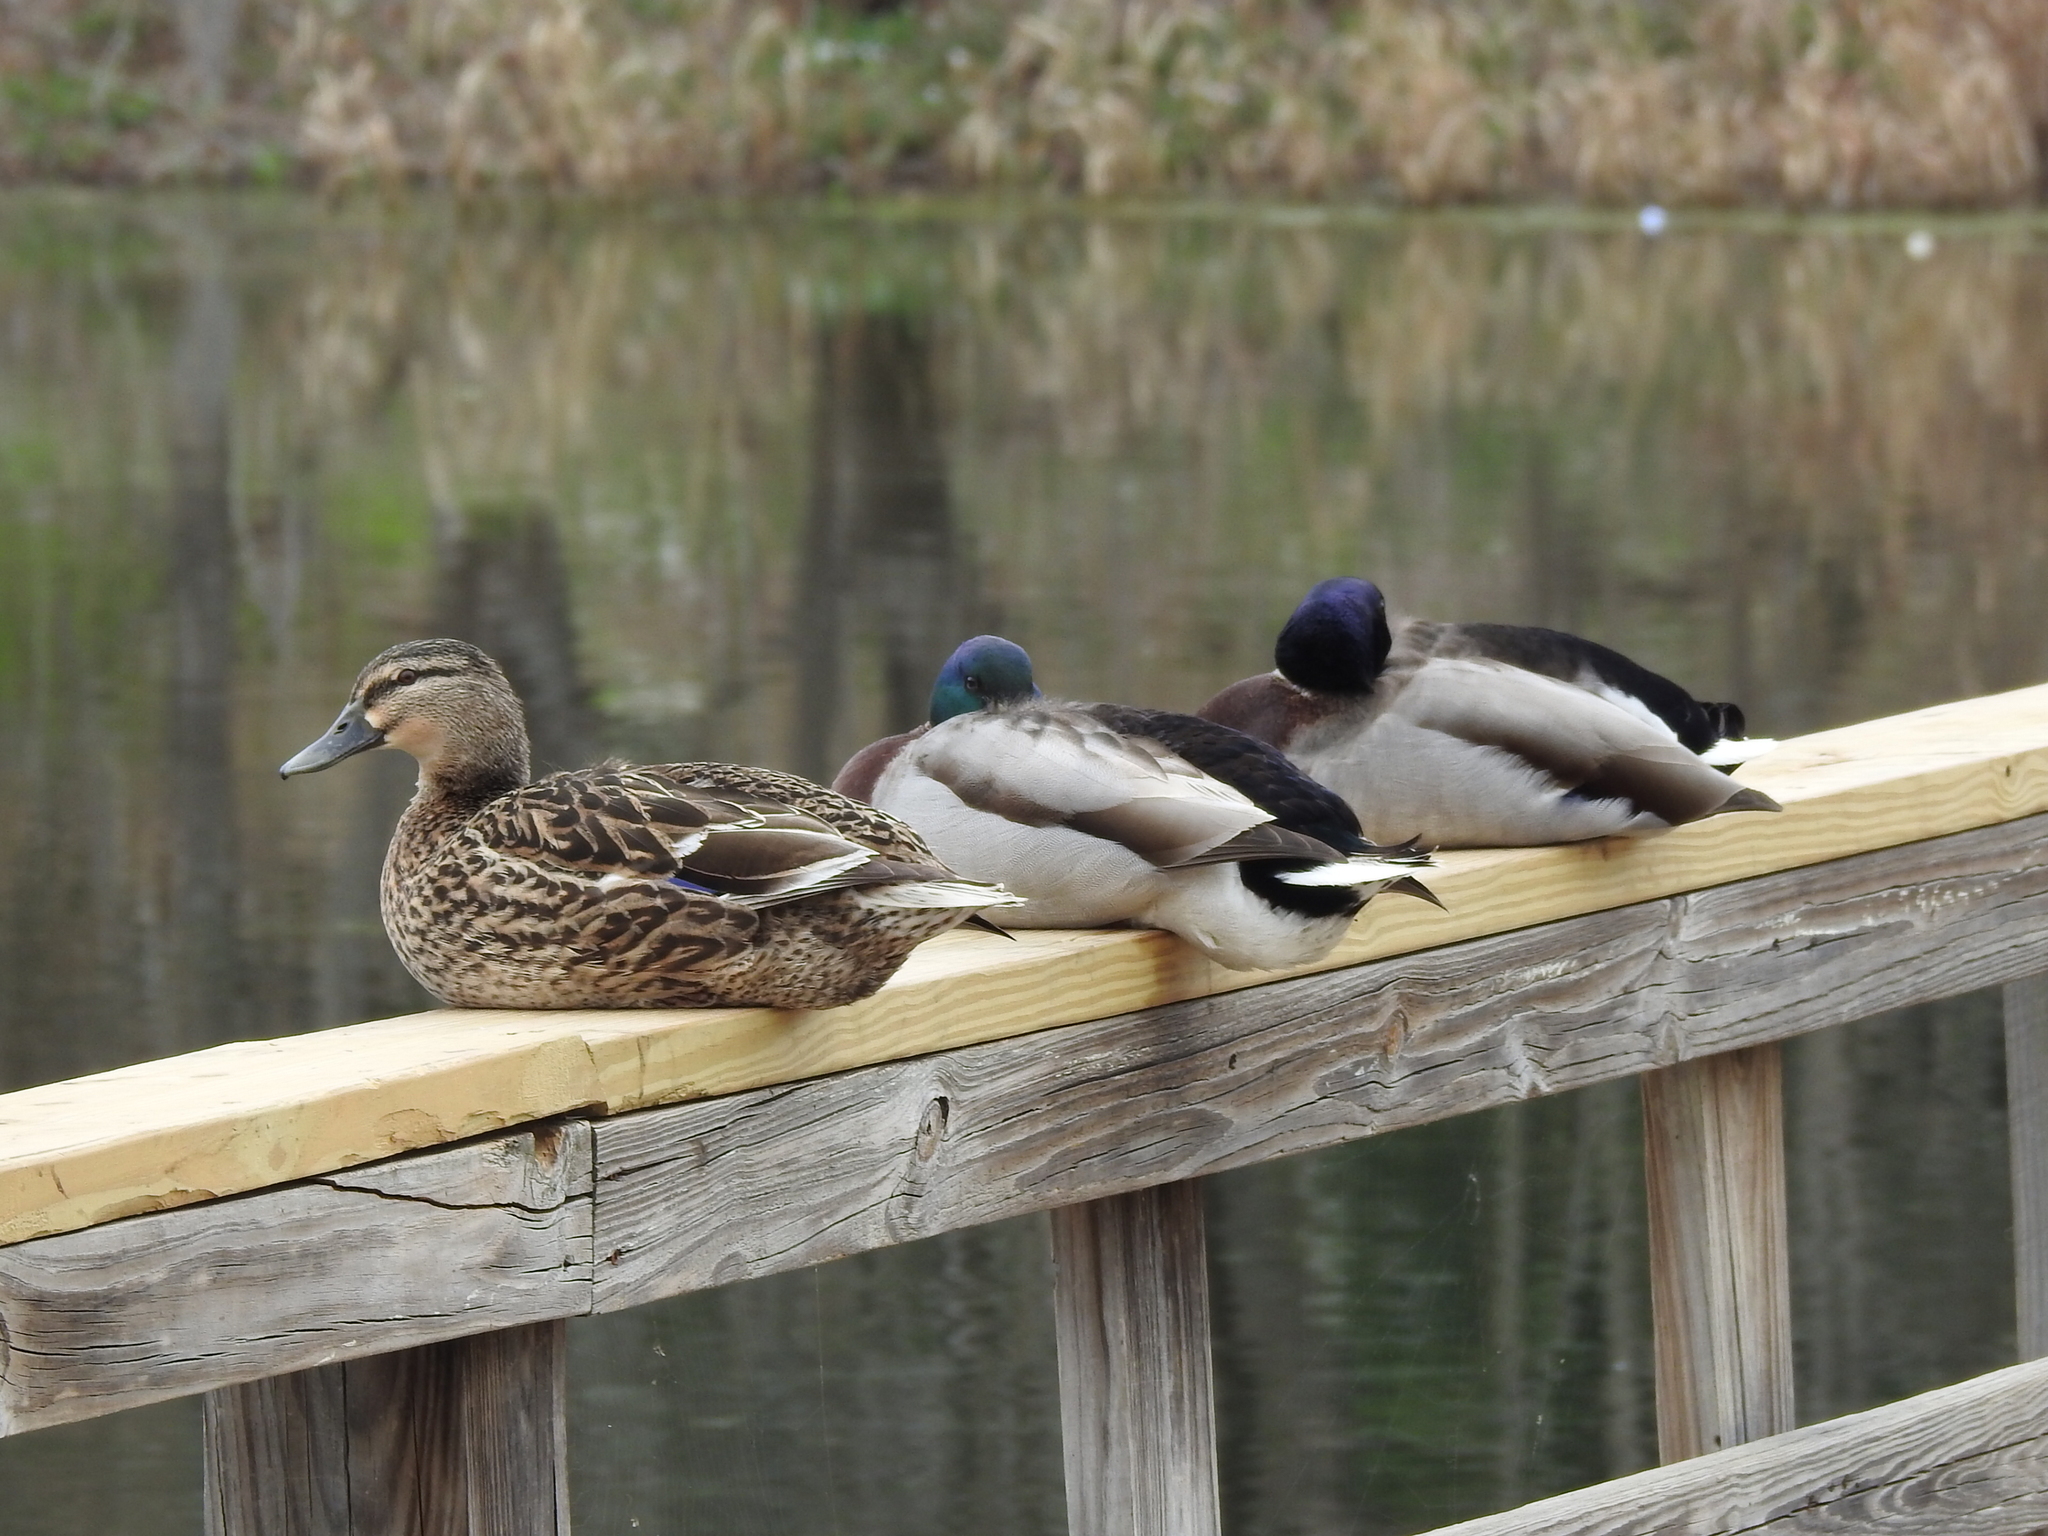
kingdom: Animalia
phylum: Chordata
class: Aves
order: Anseriformes
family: Anatidae
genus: Anas
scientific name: Anas platyrhynchos
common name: Mallard
